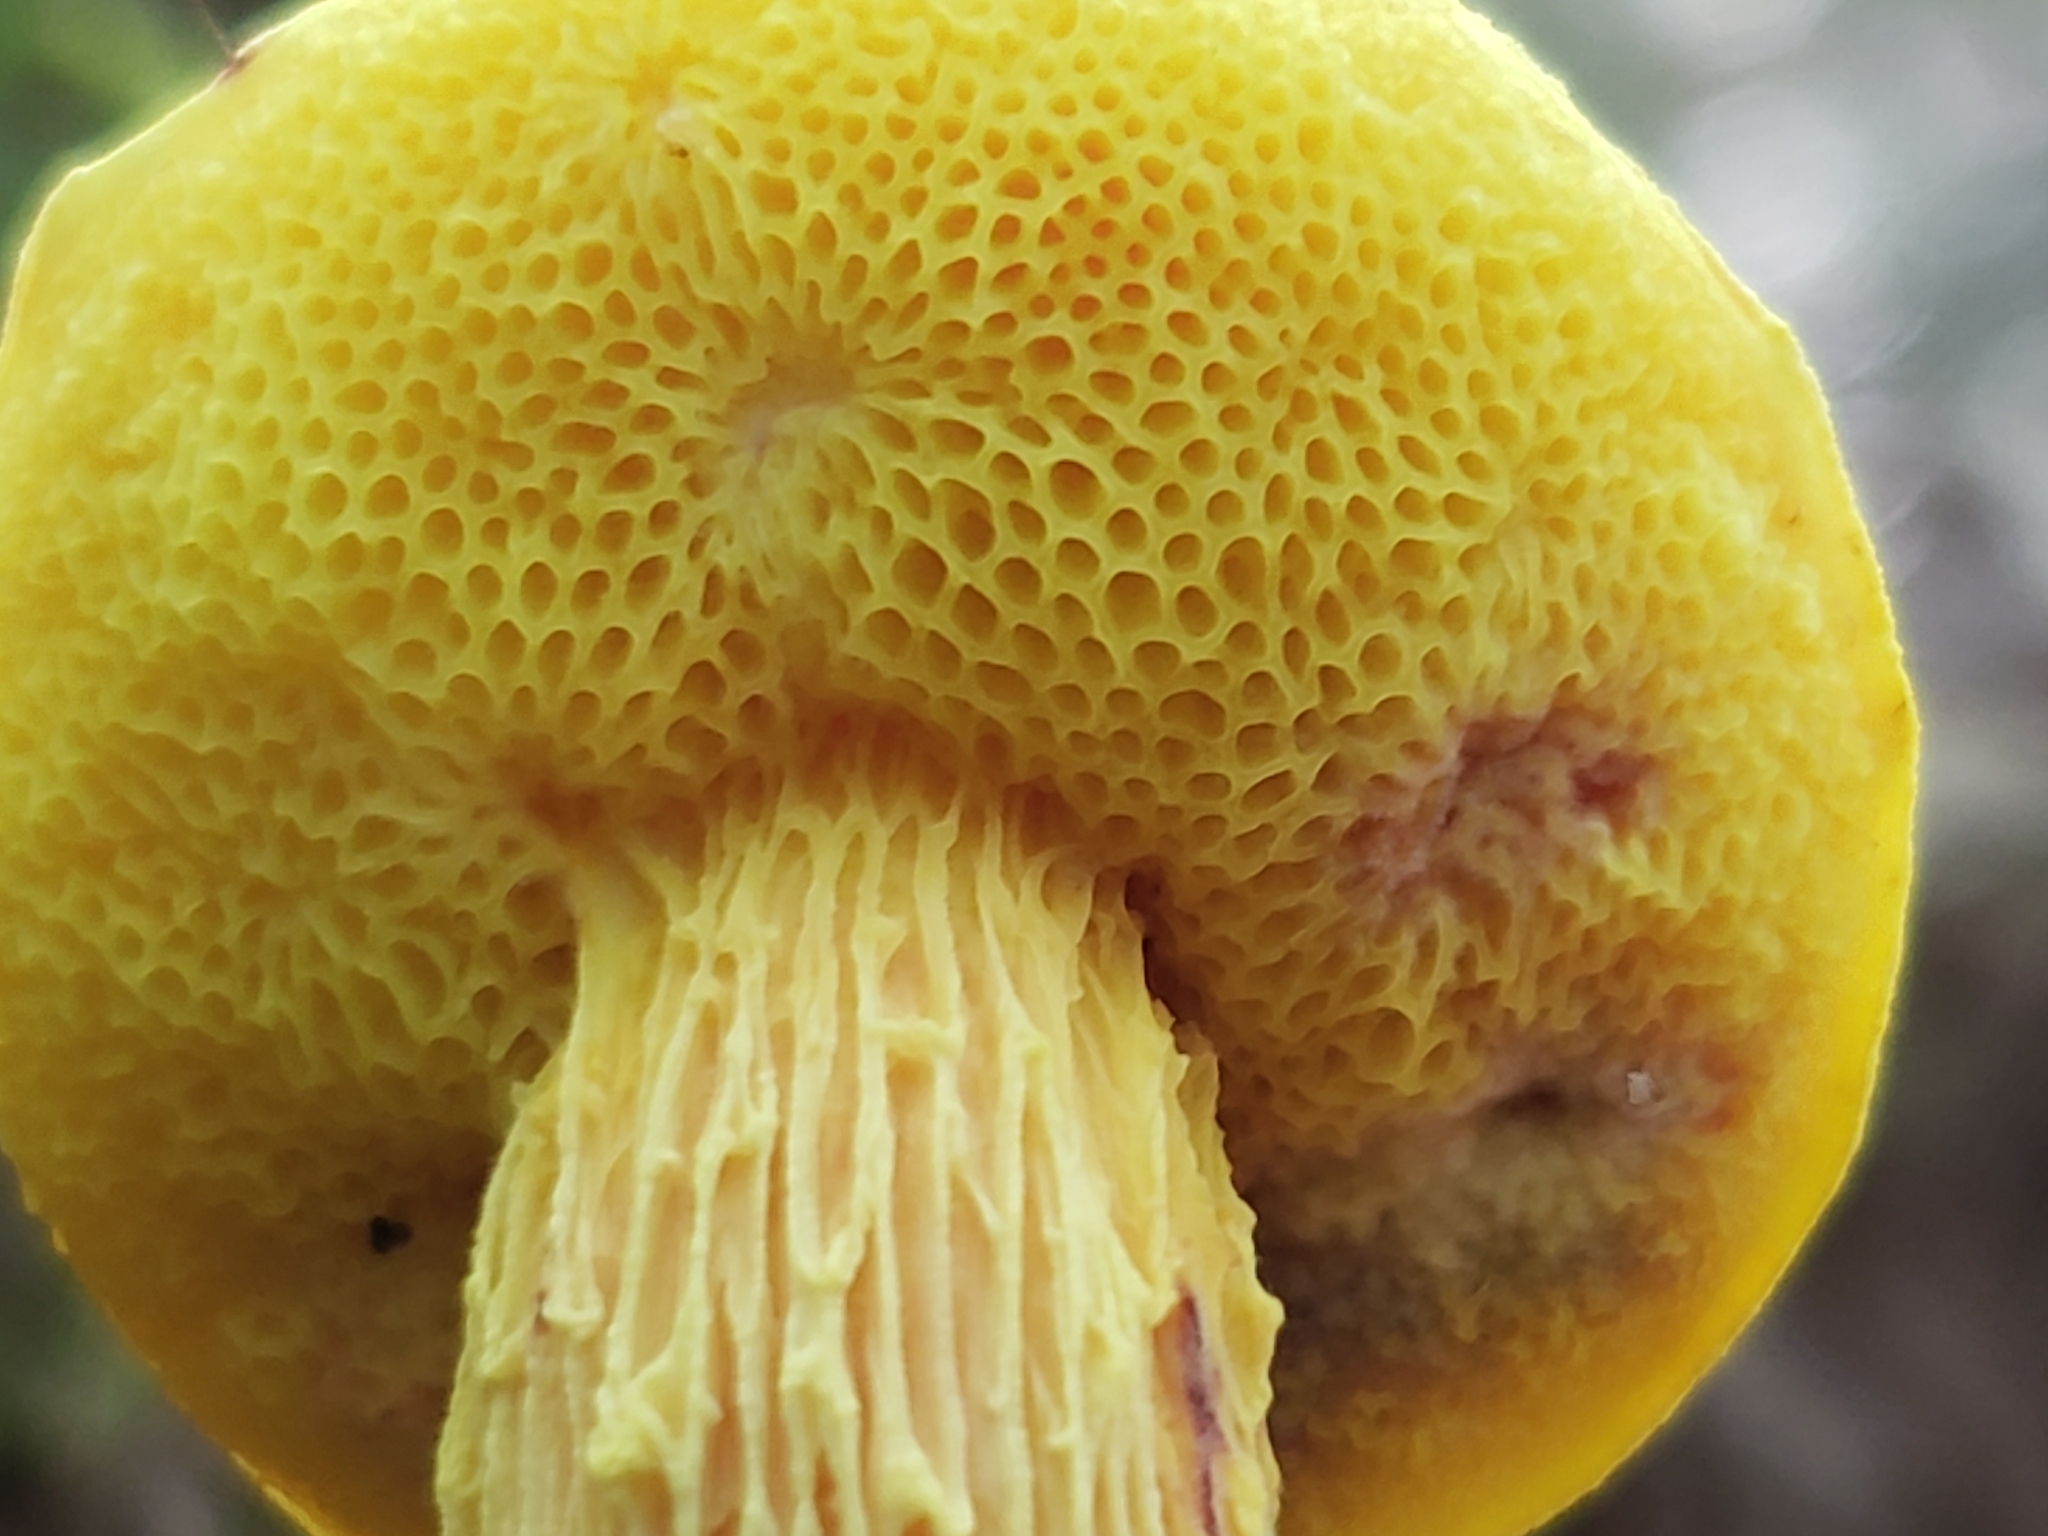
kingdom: Fungi
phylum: Basidiomycota
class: Agaricomycetes
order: Boletales
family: Boletaceae
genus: Aureoboletus
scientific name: Aureoboletus betula
